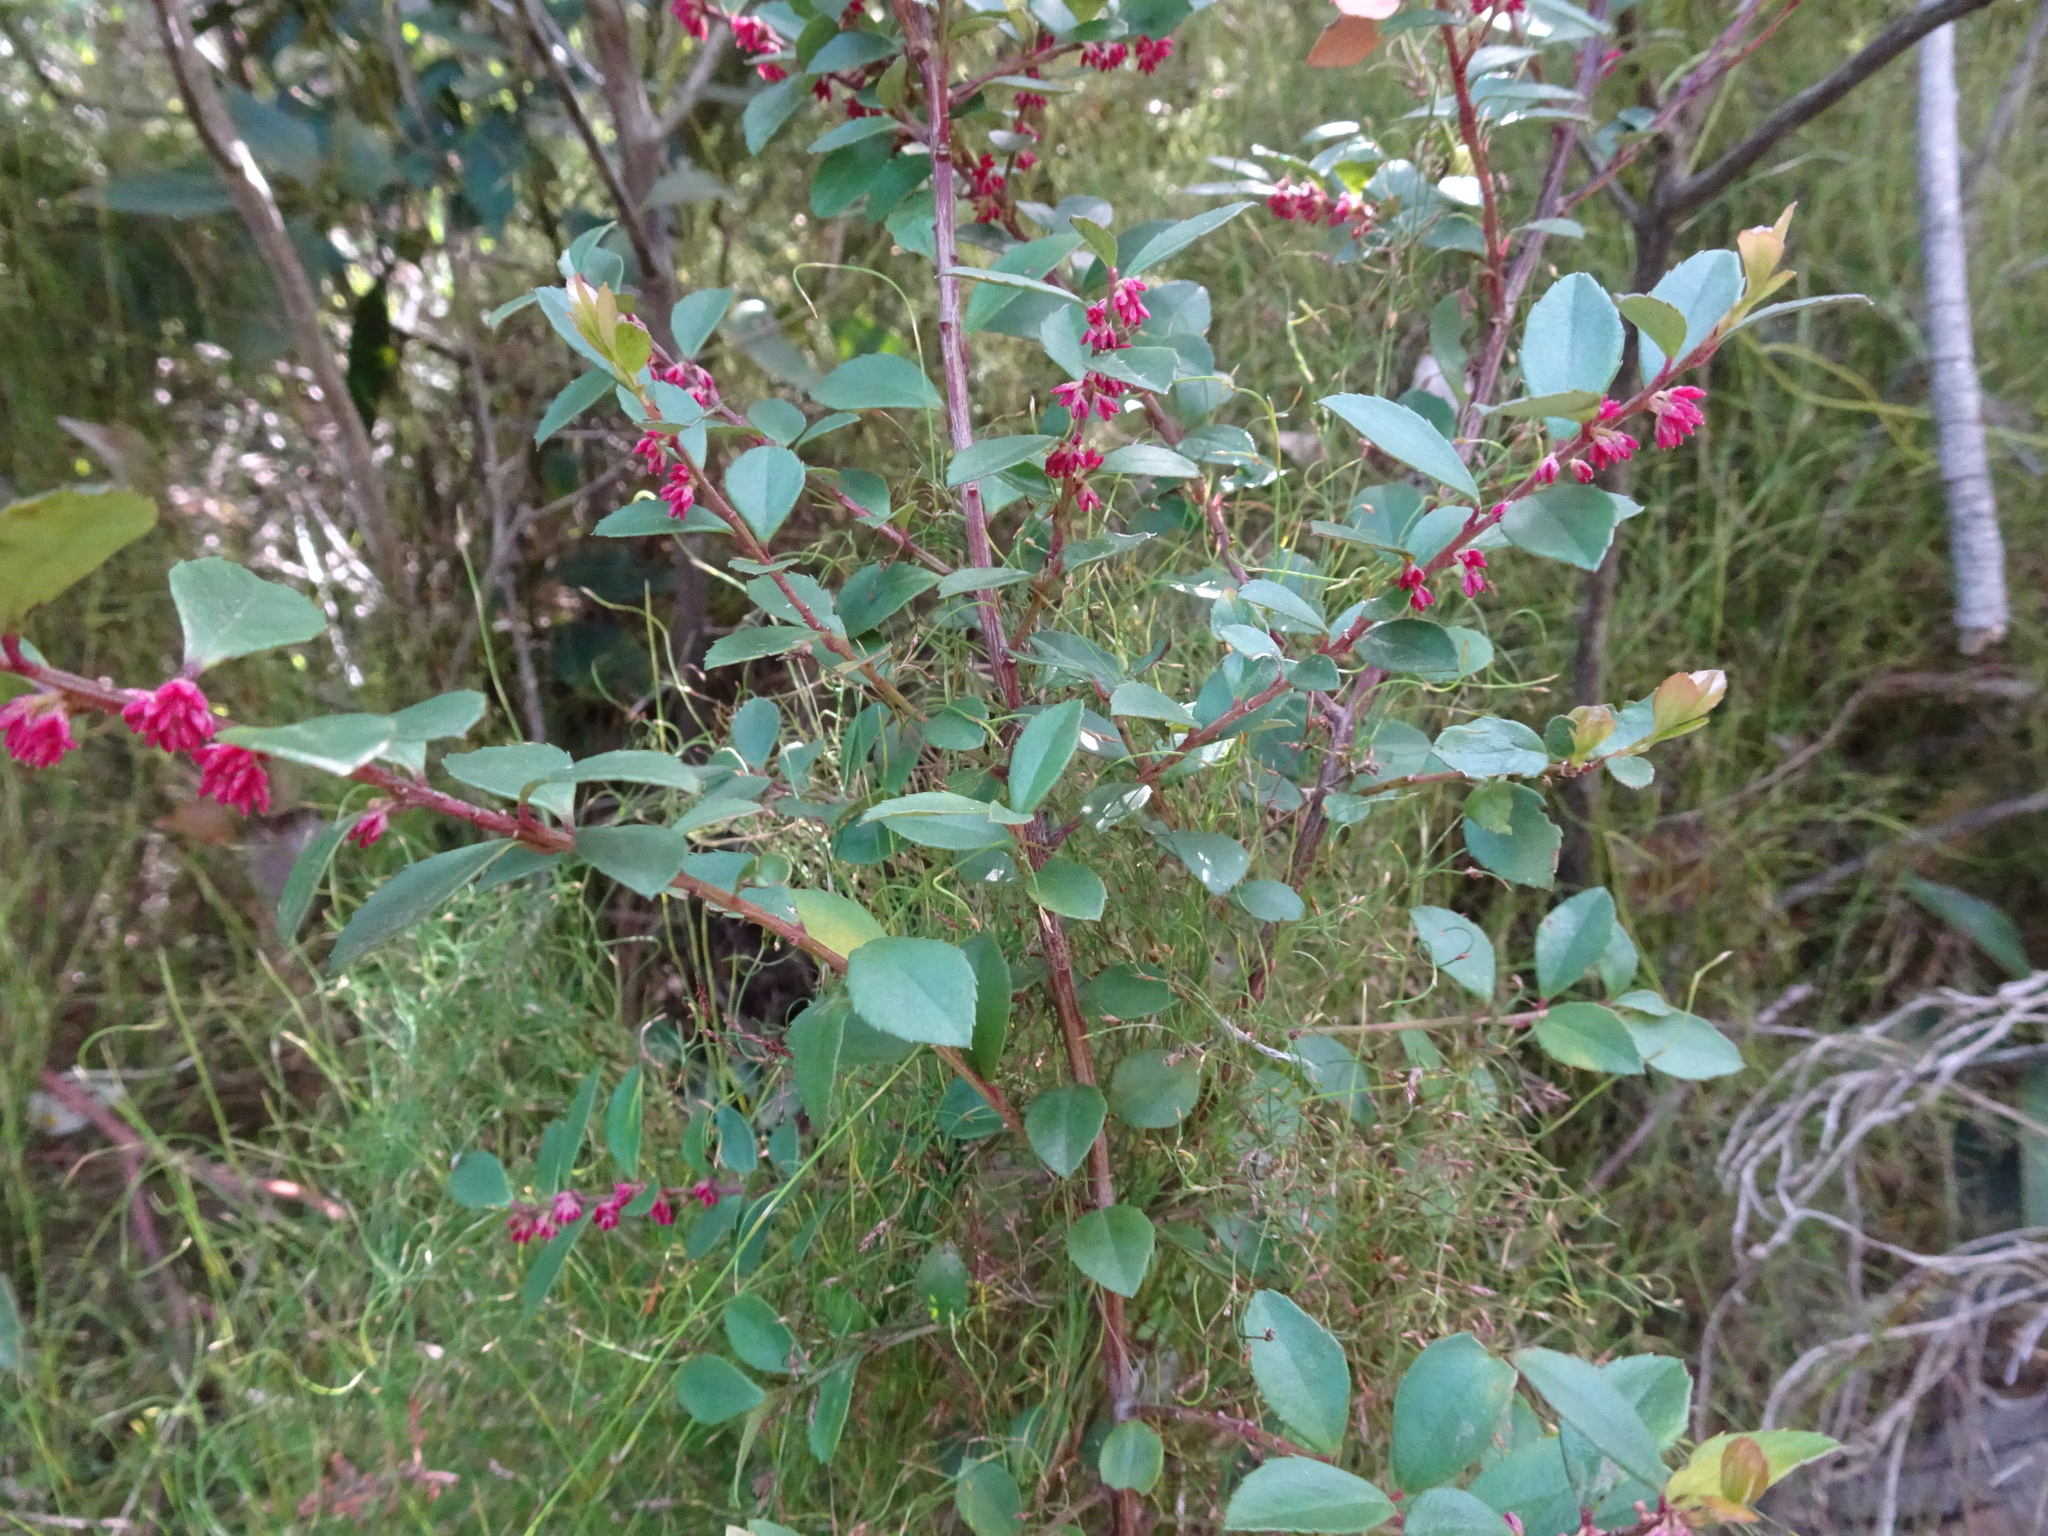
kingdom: Plantae
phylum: Tracheophyta
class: Magnoliopsida
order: Ericales
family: Primulaceae
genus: Myrsine
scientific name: Myrsine africana
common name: African-boxwood
